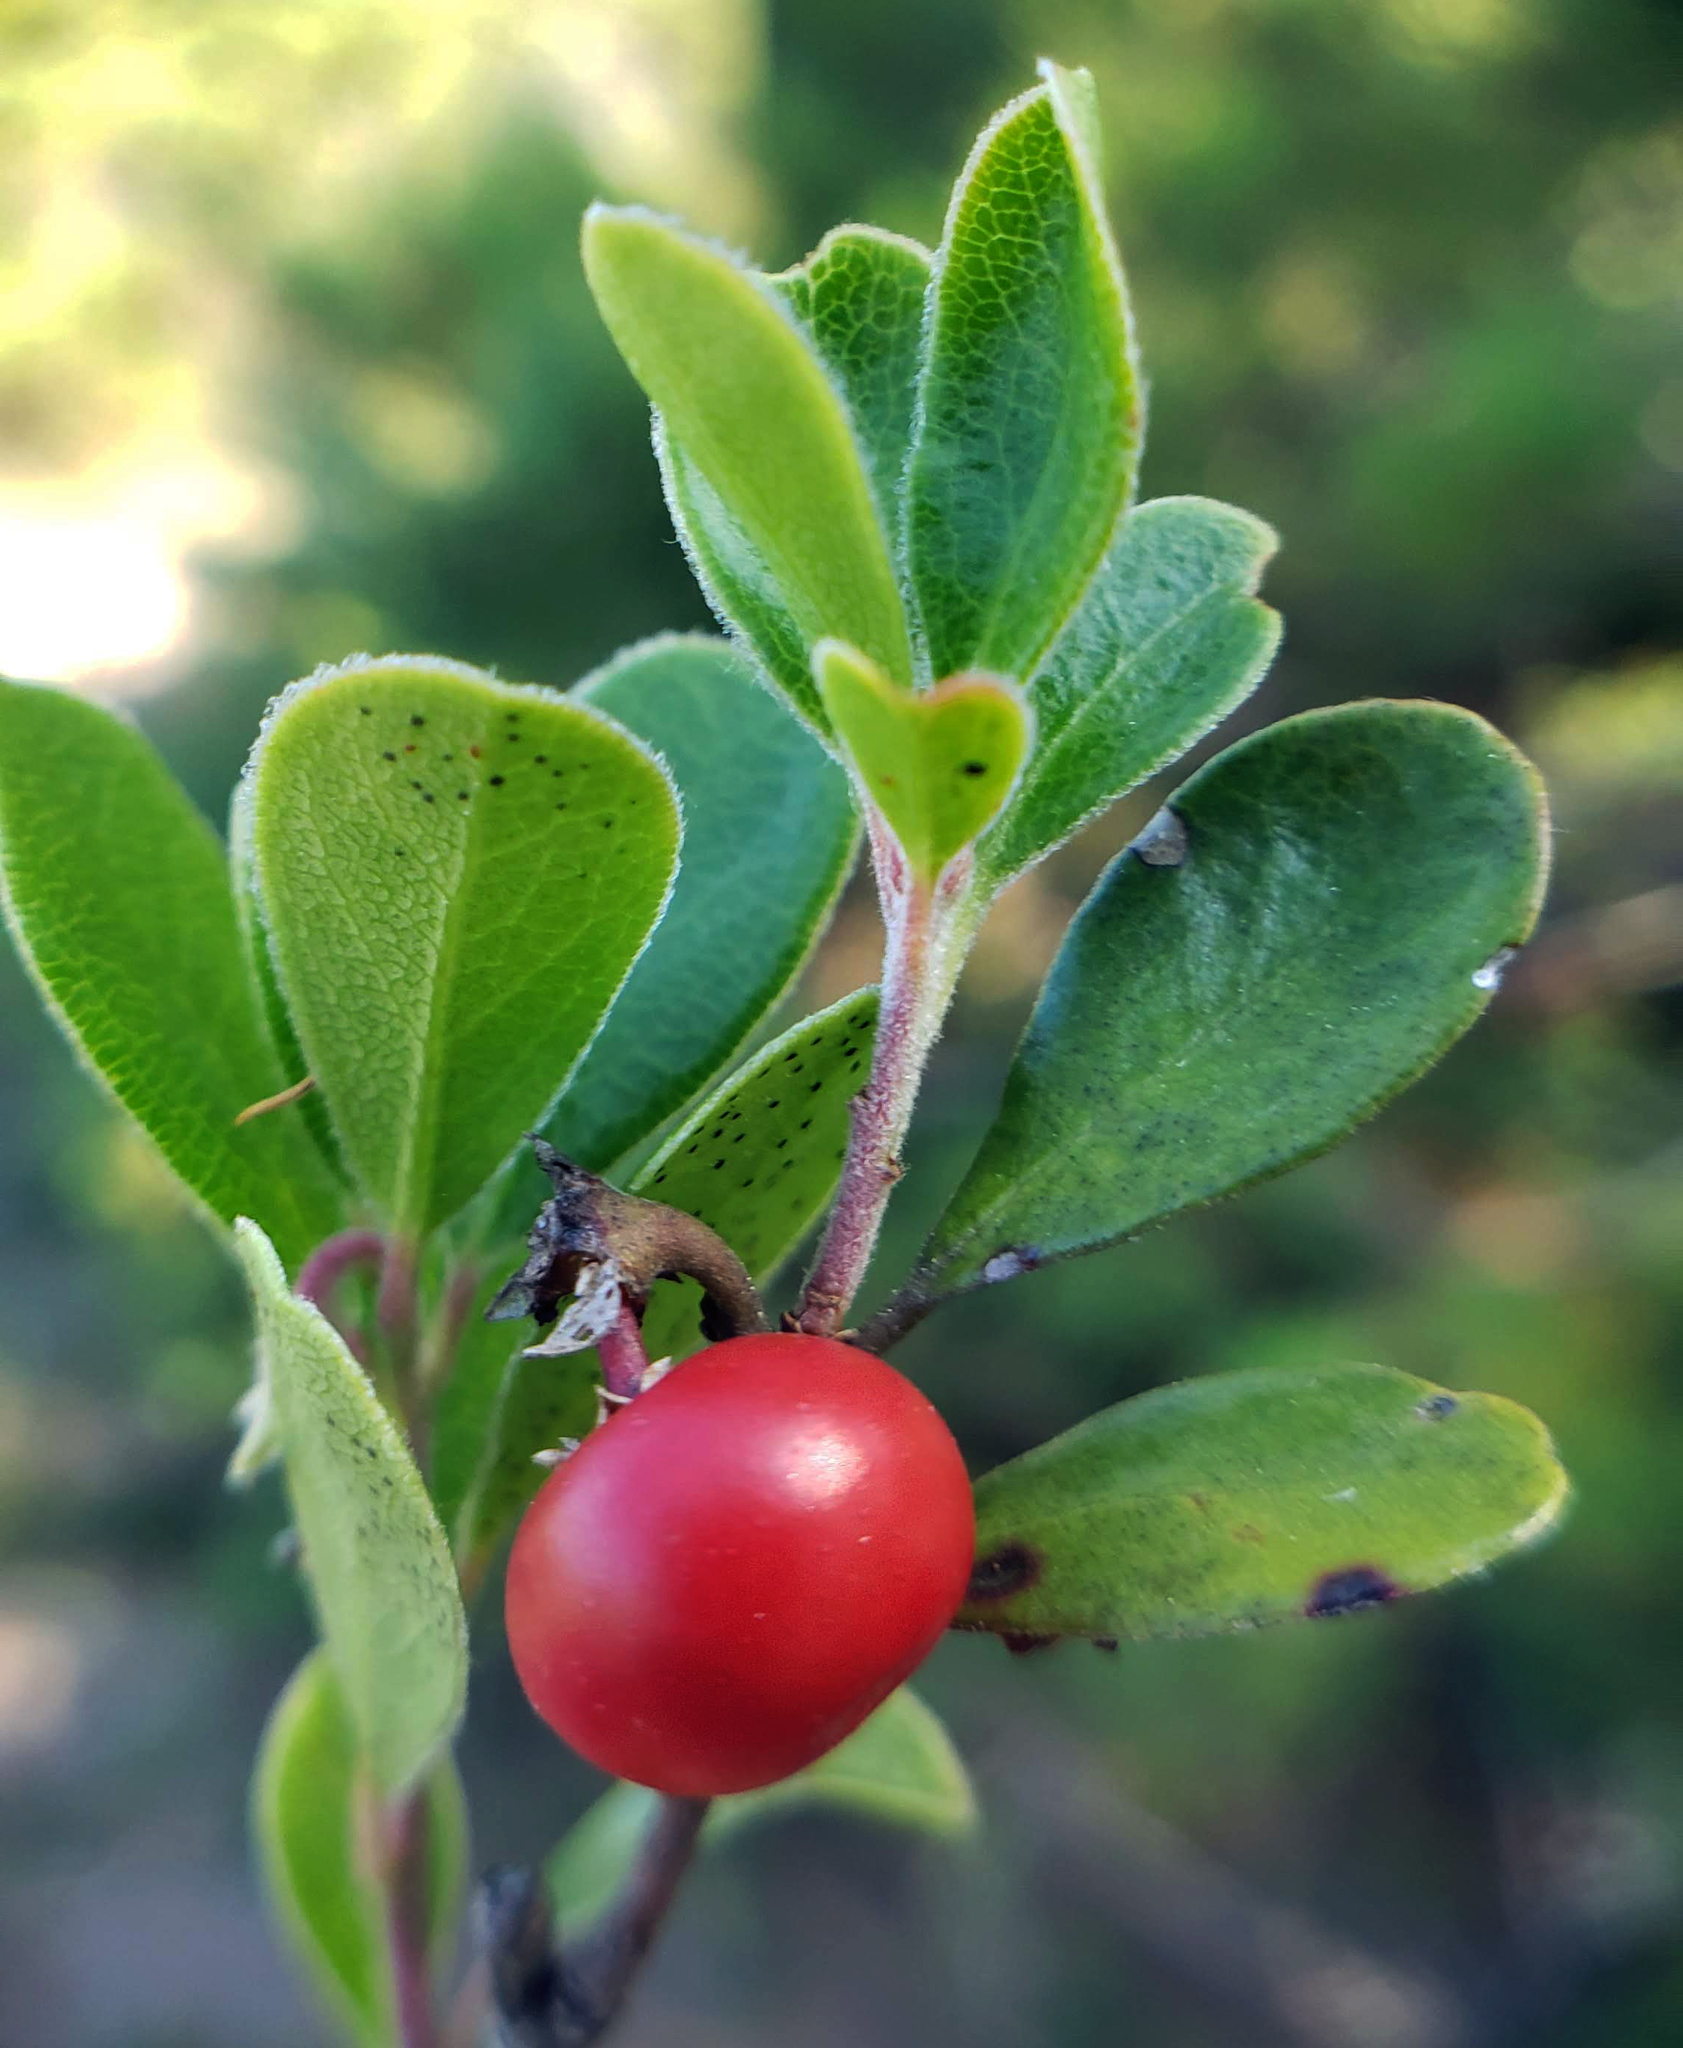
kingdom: Plantae
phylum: Tracheophyta
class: Magnoliopsida
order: Ericales
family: Ericaceae
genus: Arctostaphylos
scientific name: Arctostaphylos uva-ursi
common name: Bearberry
